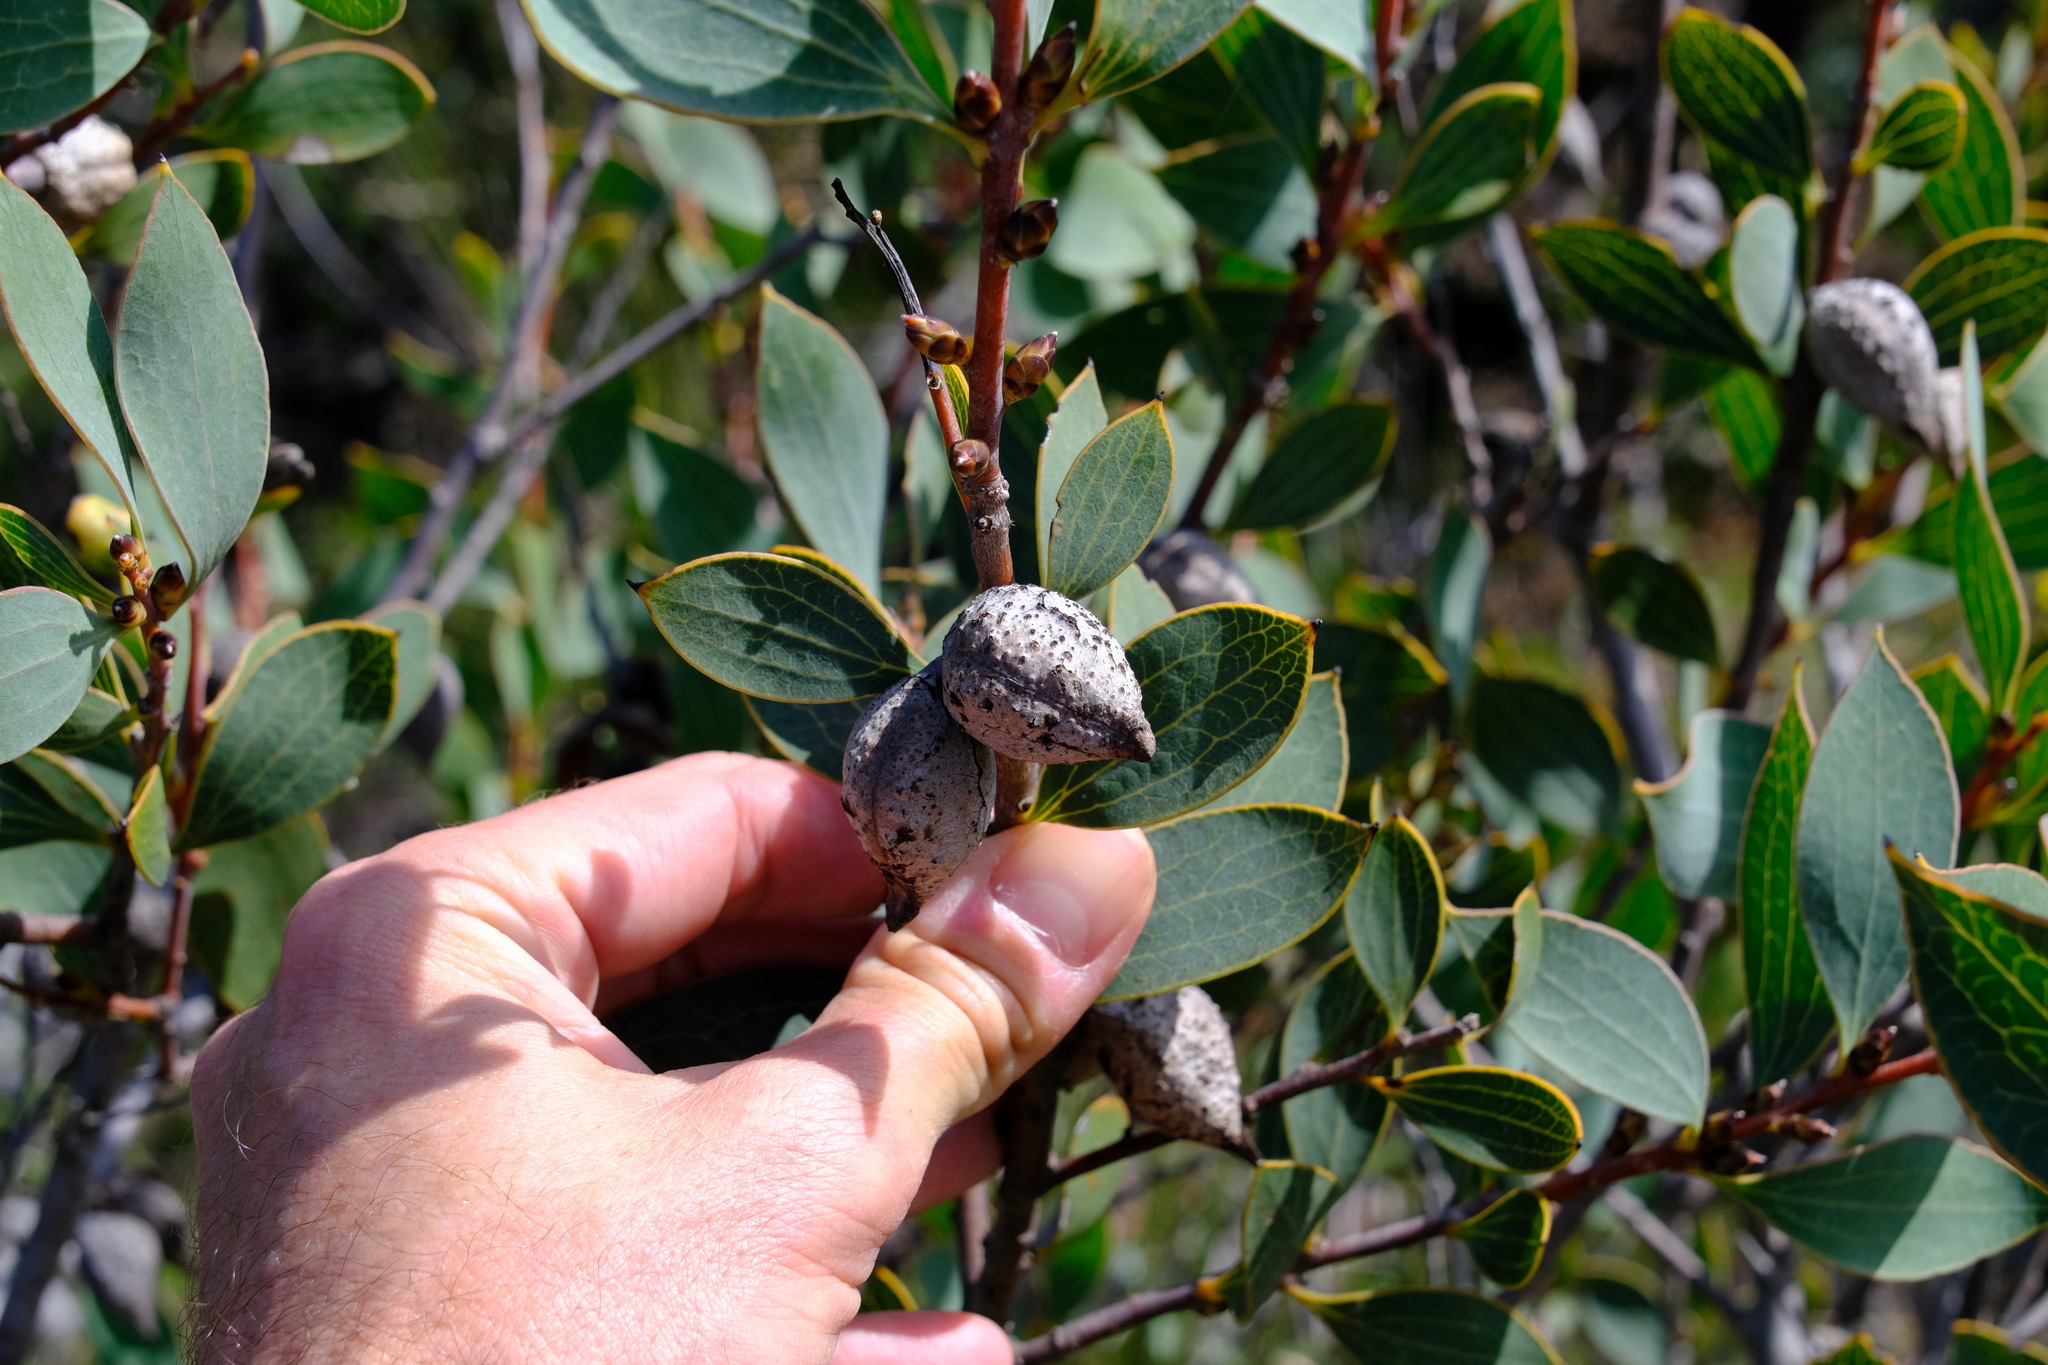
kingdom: Plantae
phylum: Tracheophyta
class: Magnoliopsida
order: Proteales
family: Proteaceae
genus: Hakea
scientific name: Hakea neurophylla
